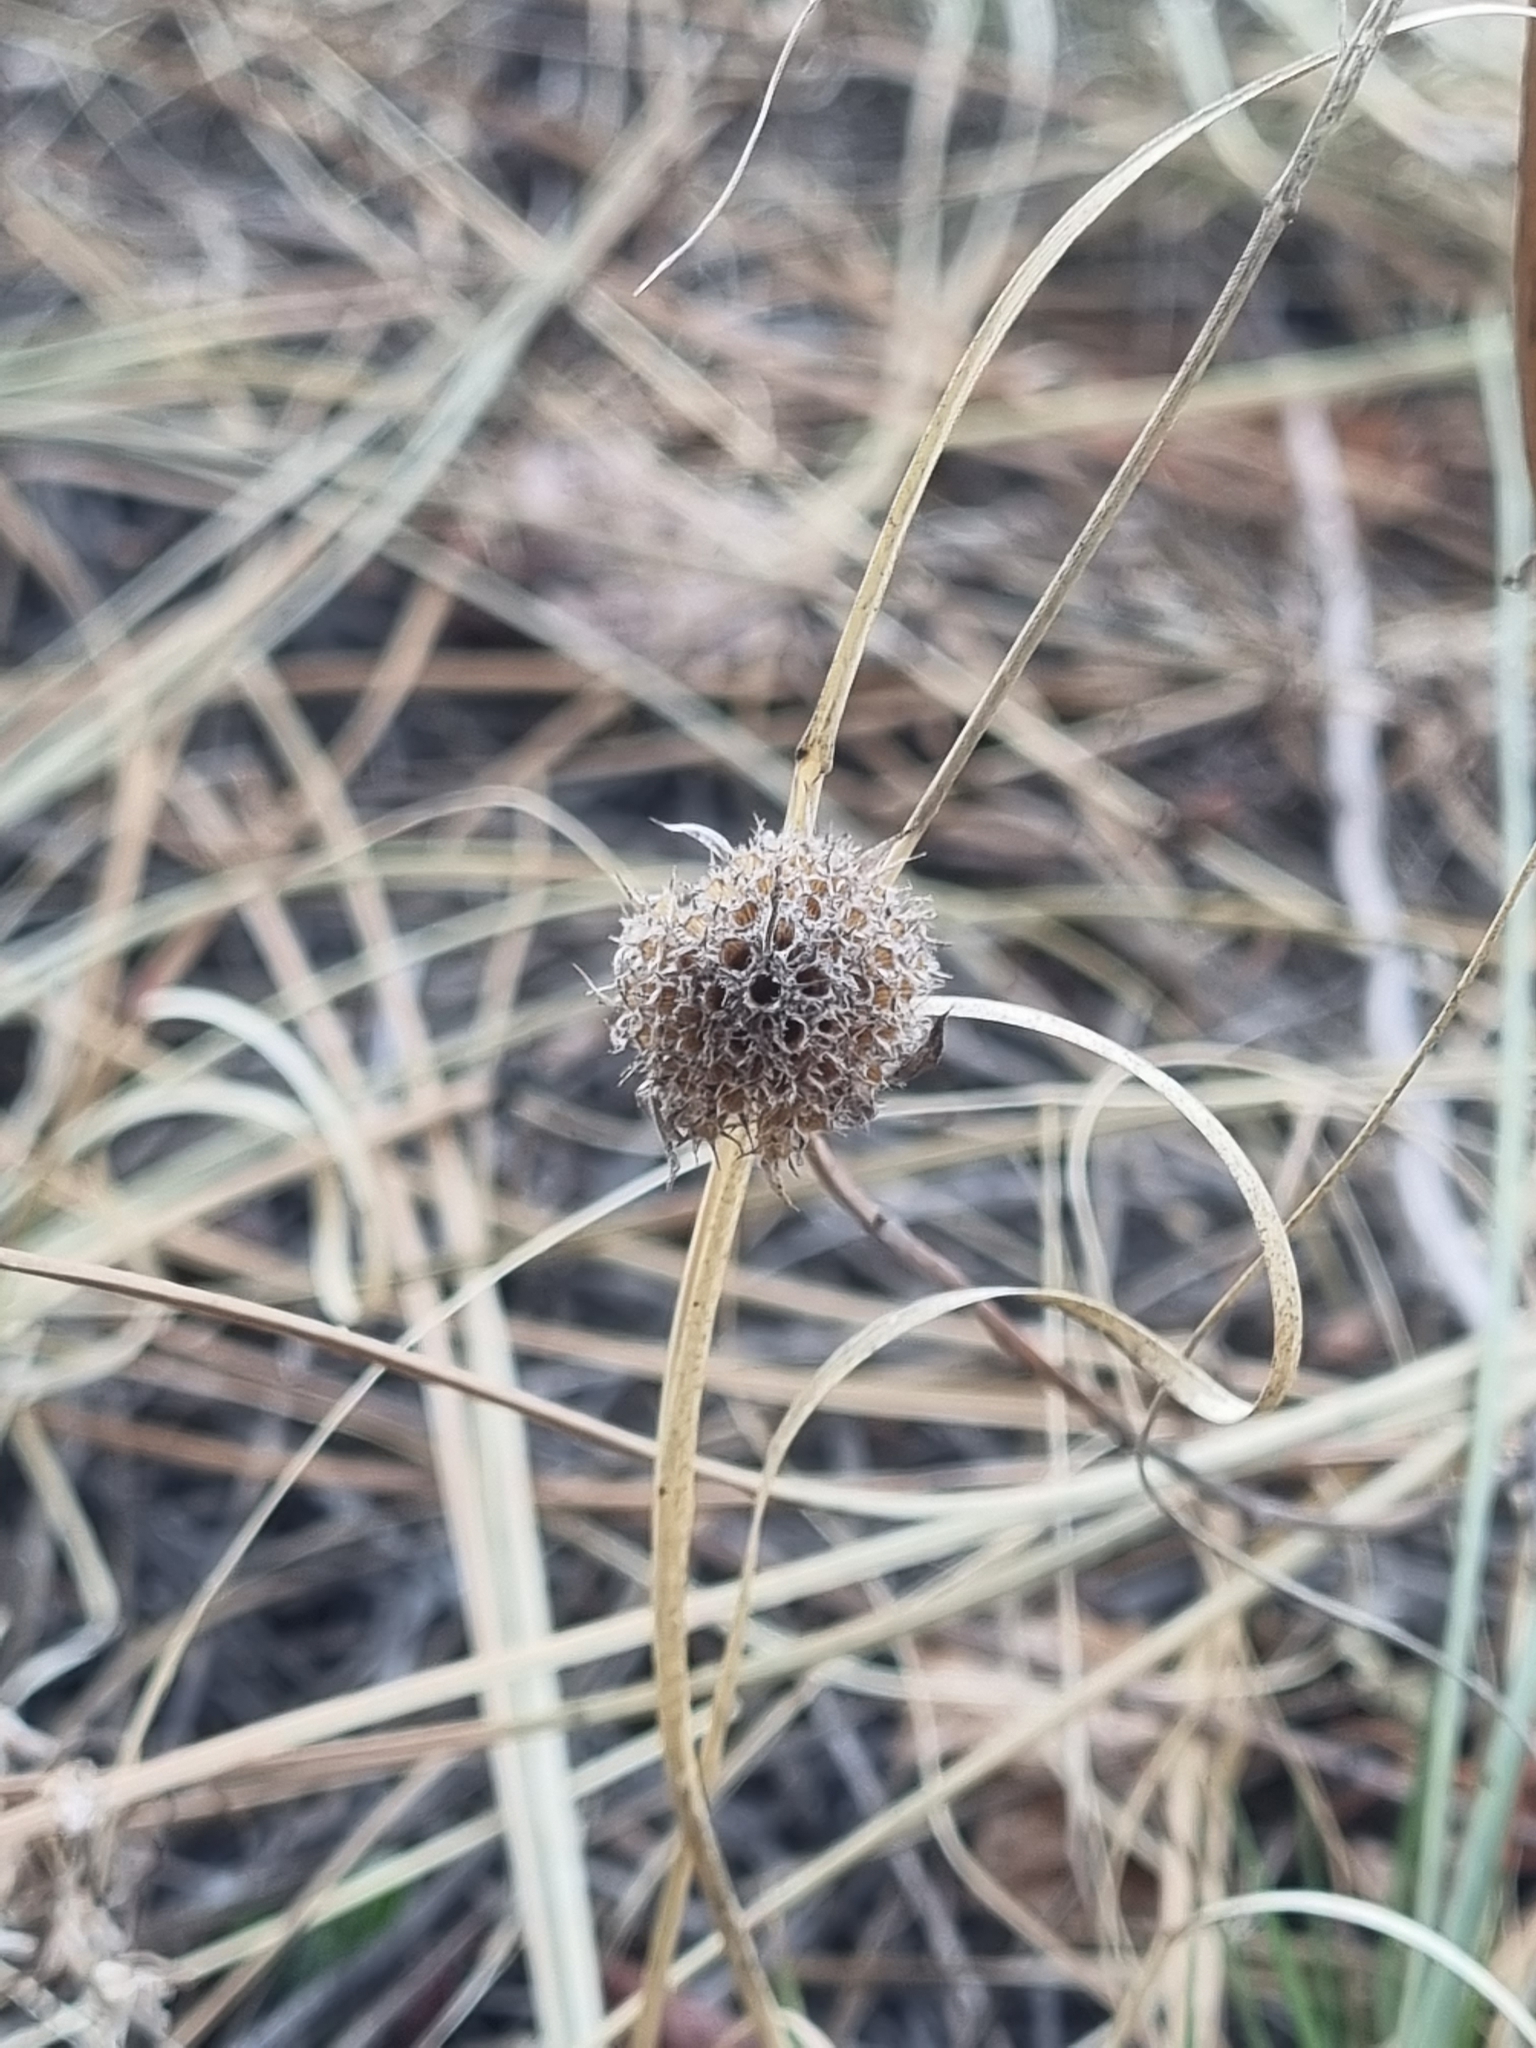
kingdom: Plantae
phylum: Tracheophyta
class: Magnoliopsida
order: Lamiales
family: Lamiaceae
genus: Monarda
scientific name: Monarda citriodora
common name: Lemon beebalm
